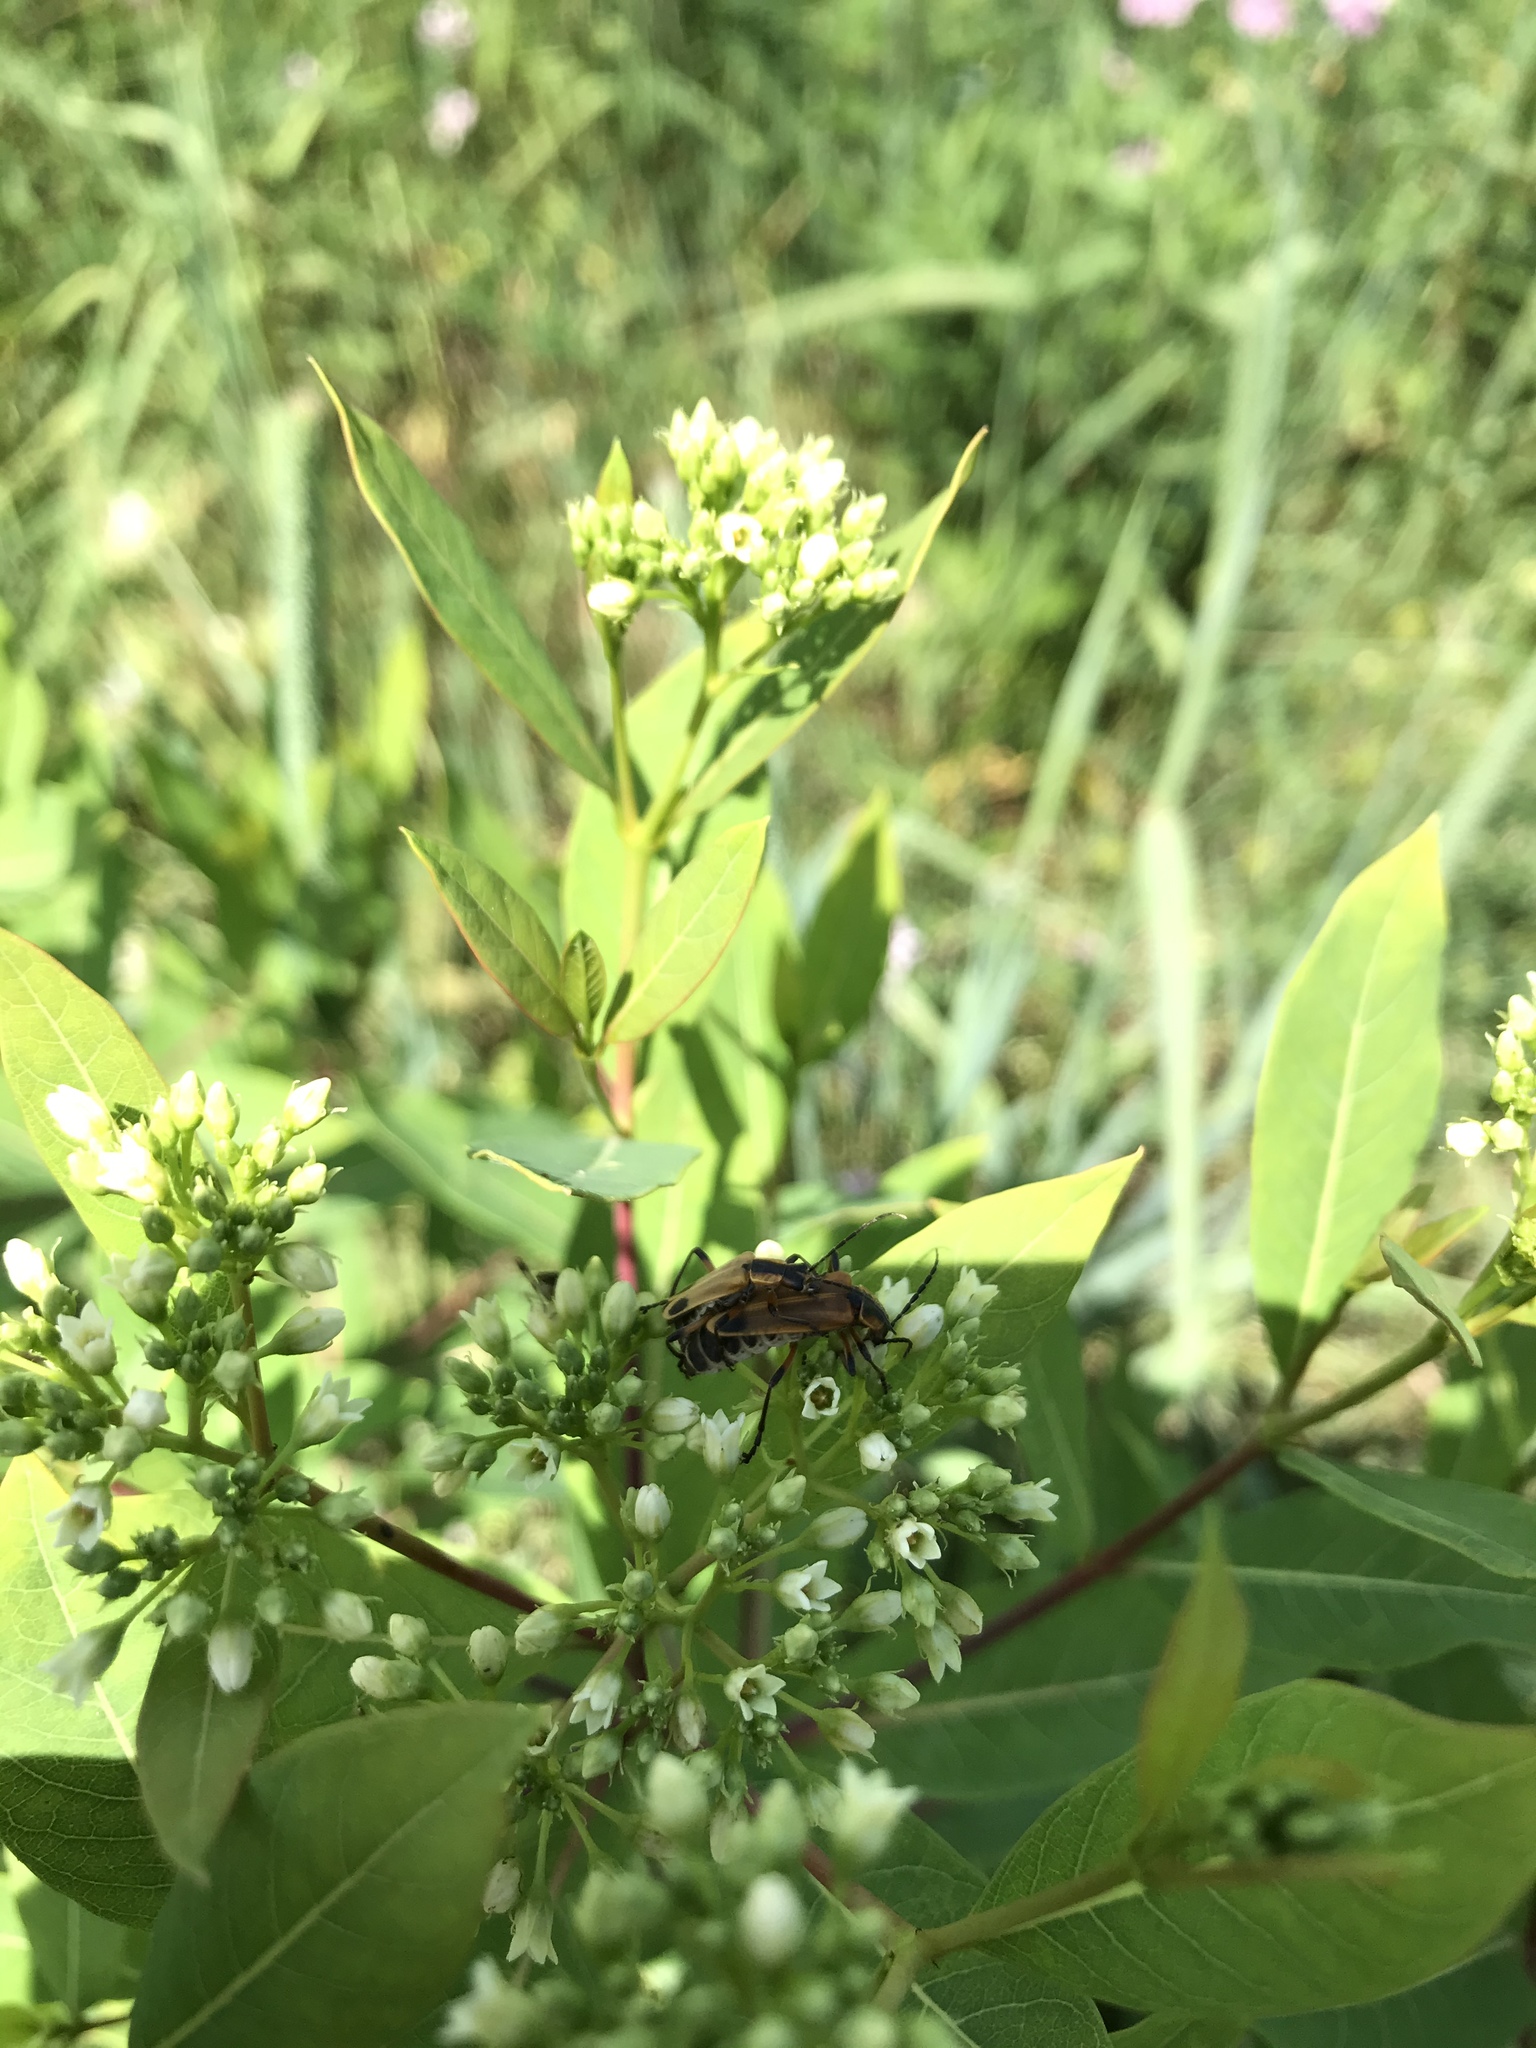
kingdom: Animalia
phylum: Arthropoda
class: Insecta
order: Coleoptera
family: Cantharidae
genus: Chauliognathus
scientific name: Chauliognathus marginatus
